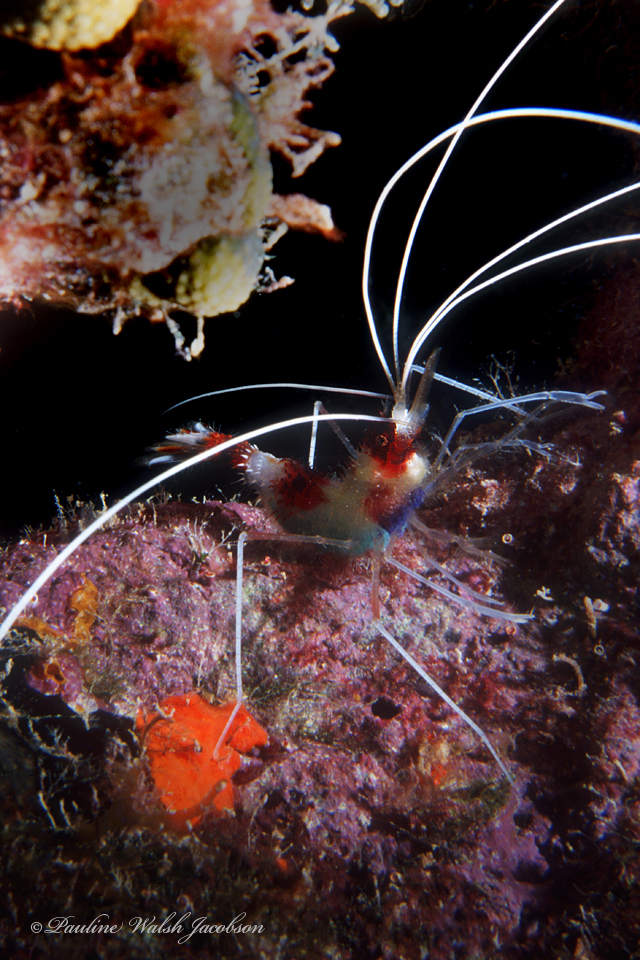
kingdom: Animalia
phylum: Arthropoda
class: Malacostraca
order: Decapoda
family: Stenopodidae
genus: Stenopus
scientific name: Stenopus hispidus
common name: Banded coral shrimp
